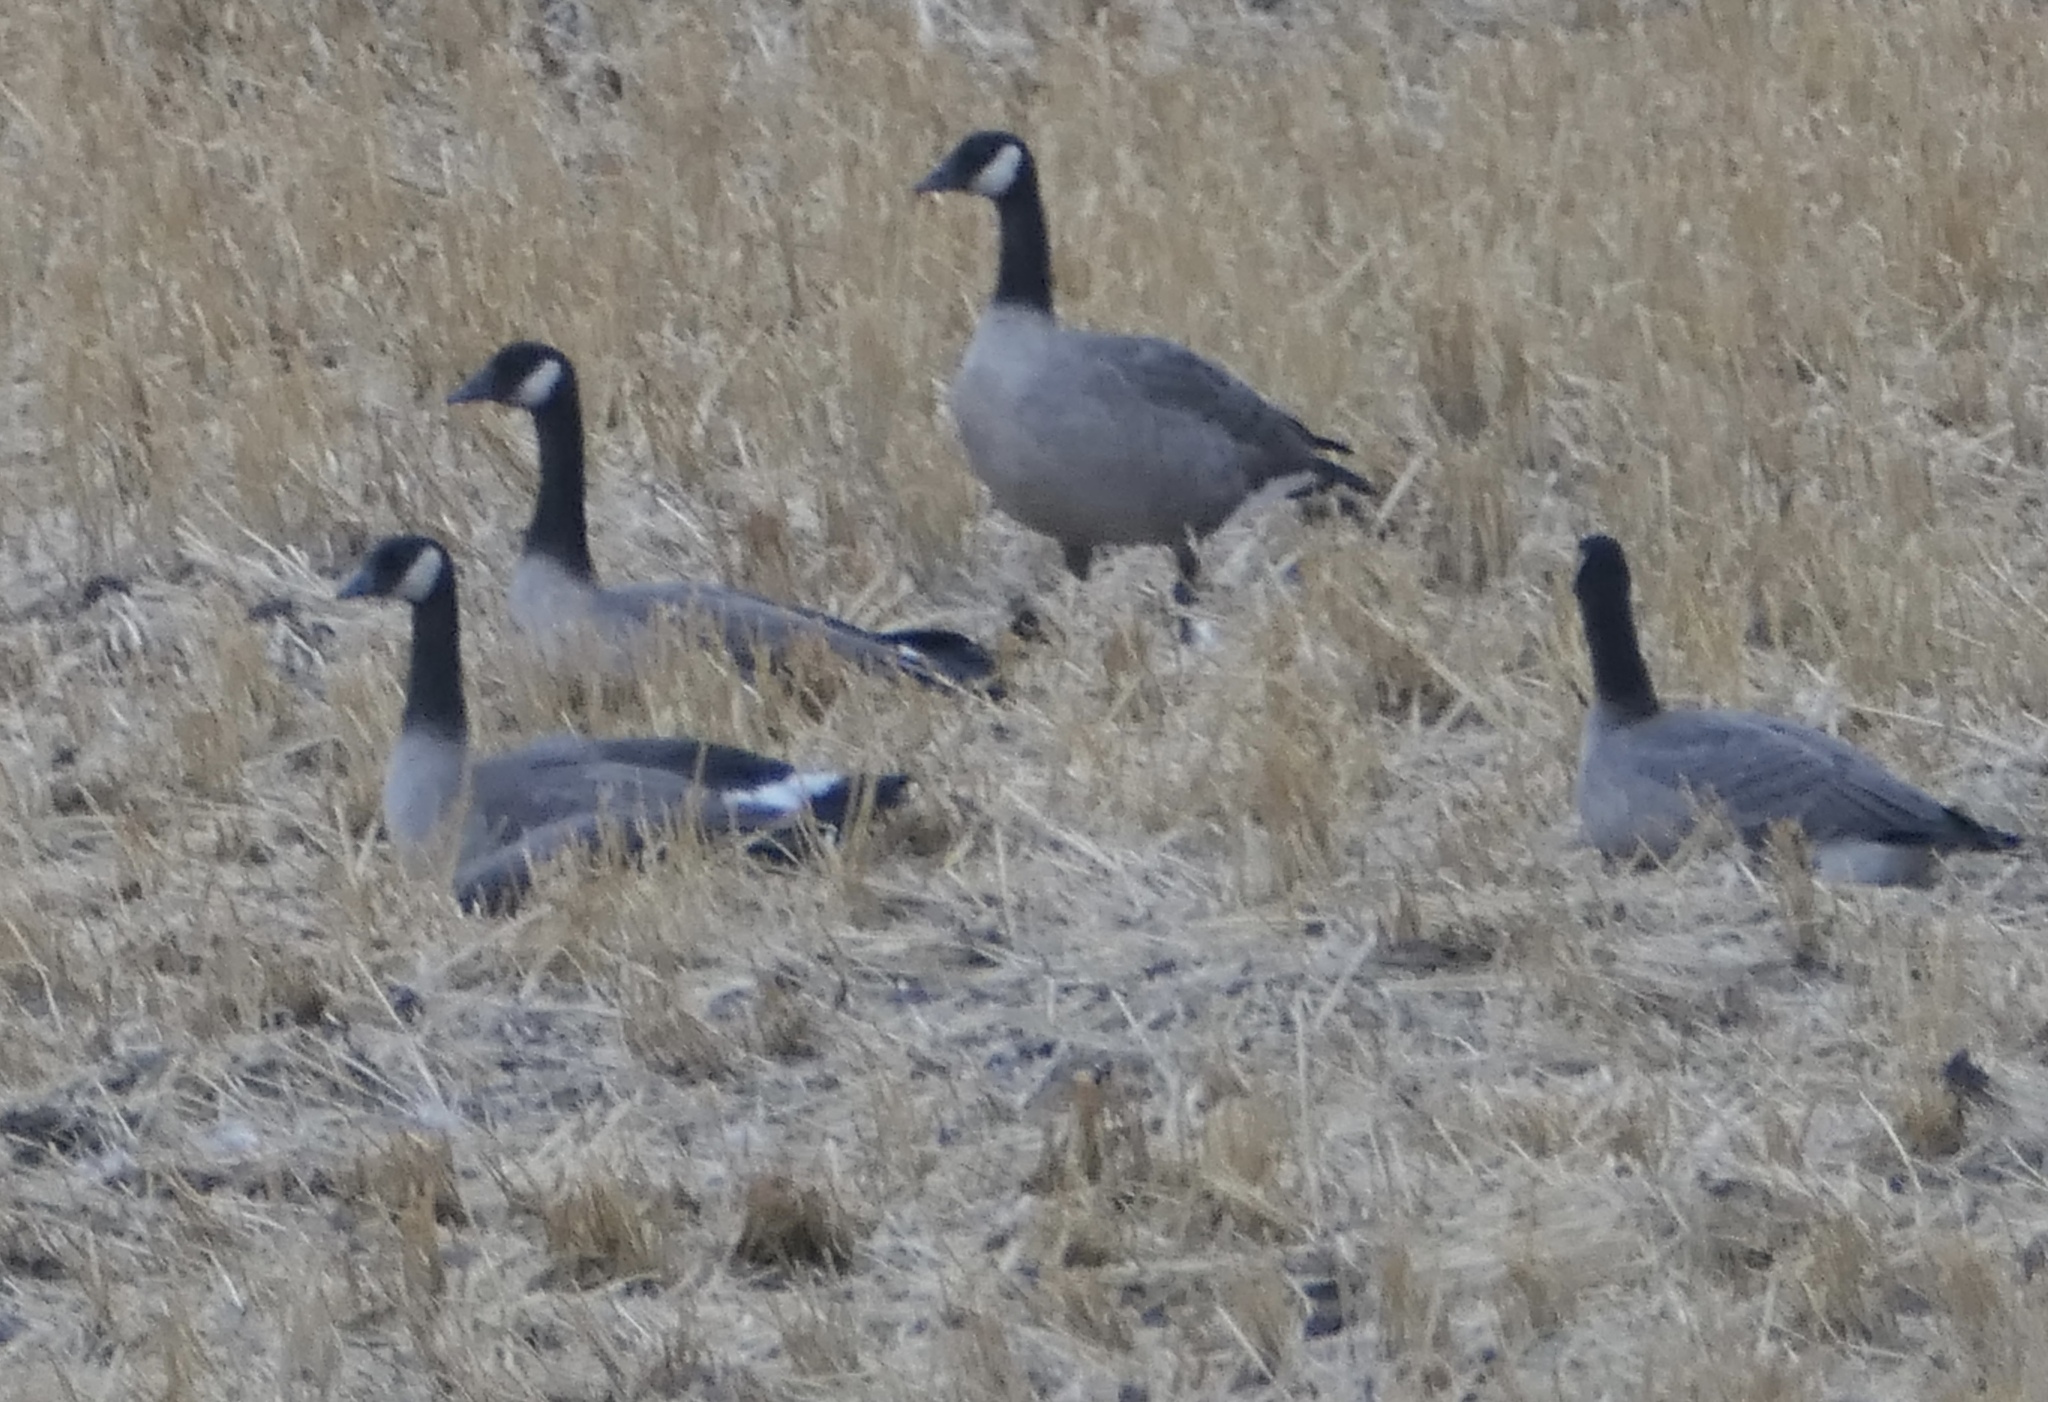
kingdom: Animalia
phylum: Chordata
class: Aves
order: Anseriformes
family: Anatidae
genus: Branta
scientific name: Branta canadensis
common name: Canada goose
